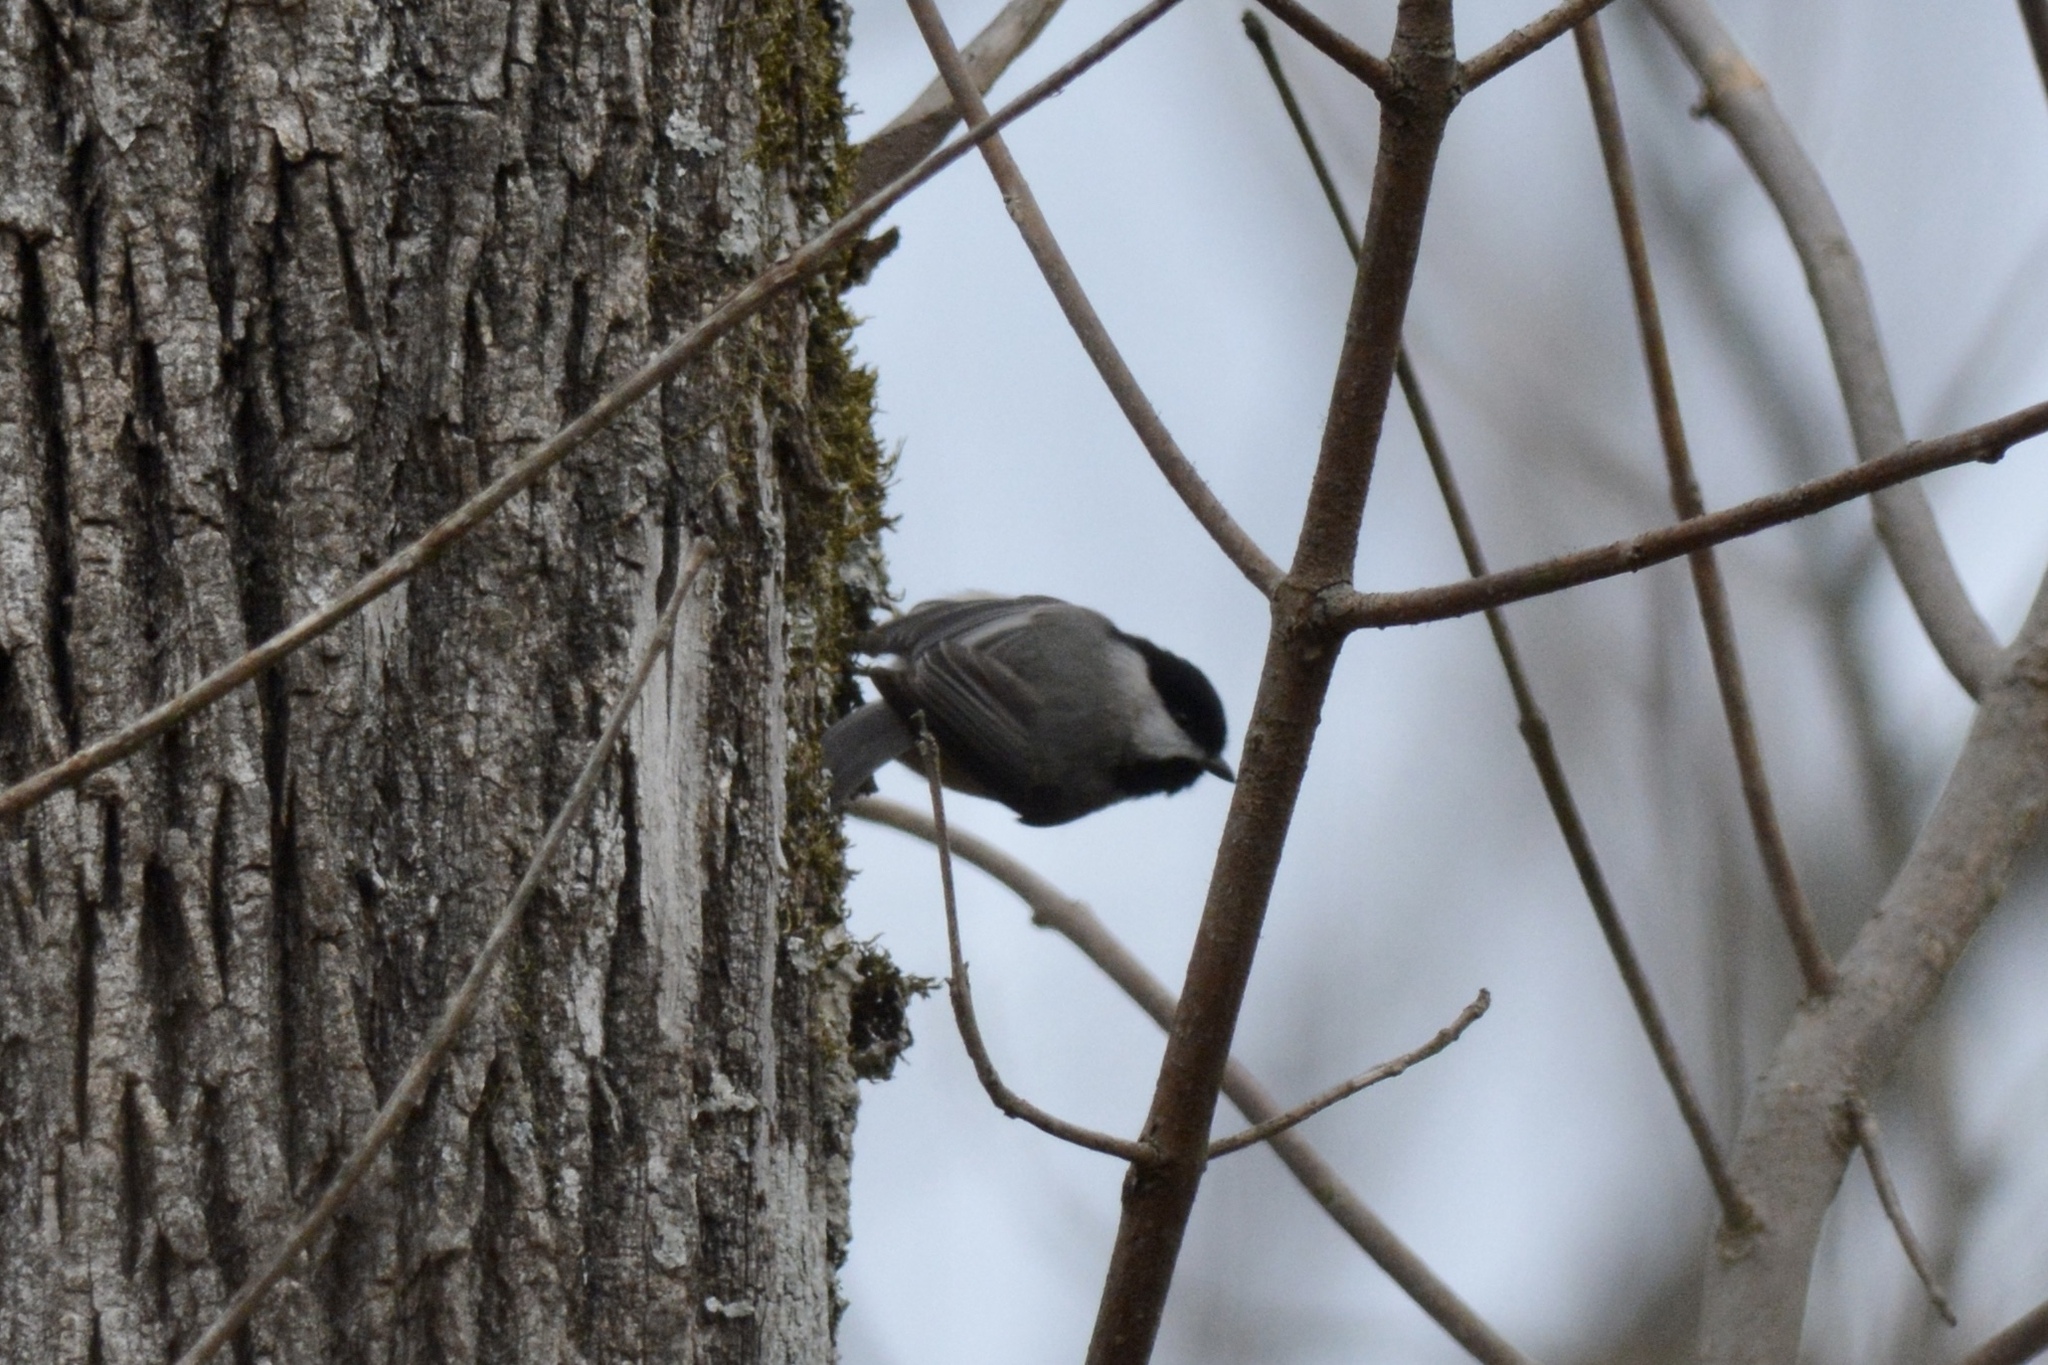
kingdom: Animalia
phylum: Chordata
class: Aves
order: Passeriformes
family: Paridae
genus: Poecile
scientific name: Poecile carolinensis
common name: Carolina chickadee
